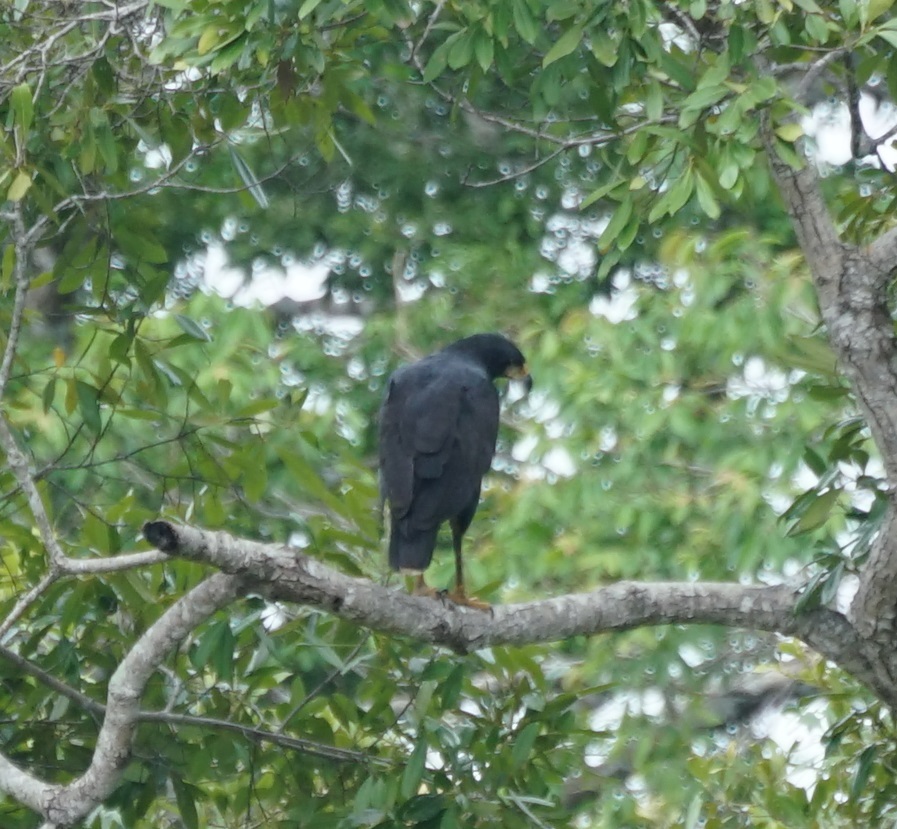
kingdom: Animalia
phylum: Chordata
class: Aves
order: Accipitriformes
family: Accipitridae
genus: Buteogallus
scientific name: Buteogallus urubitinga
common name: Great black hawk
